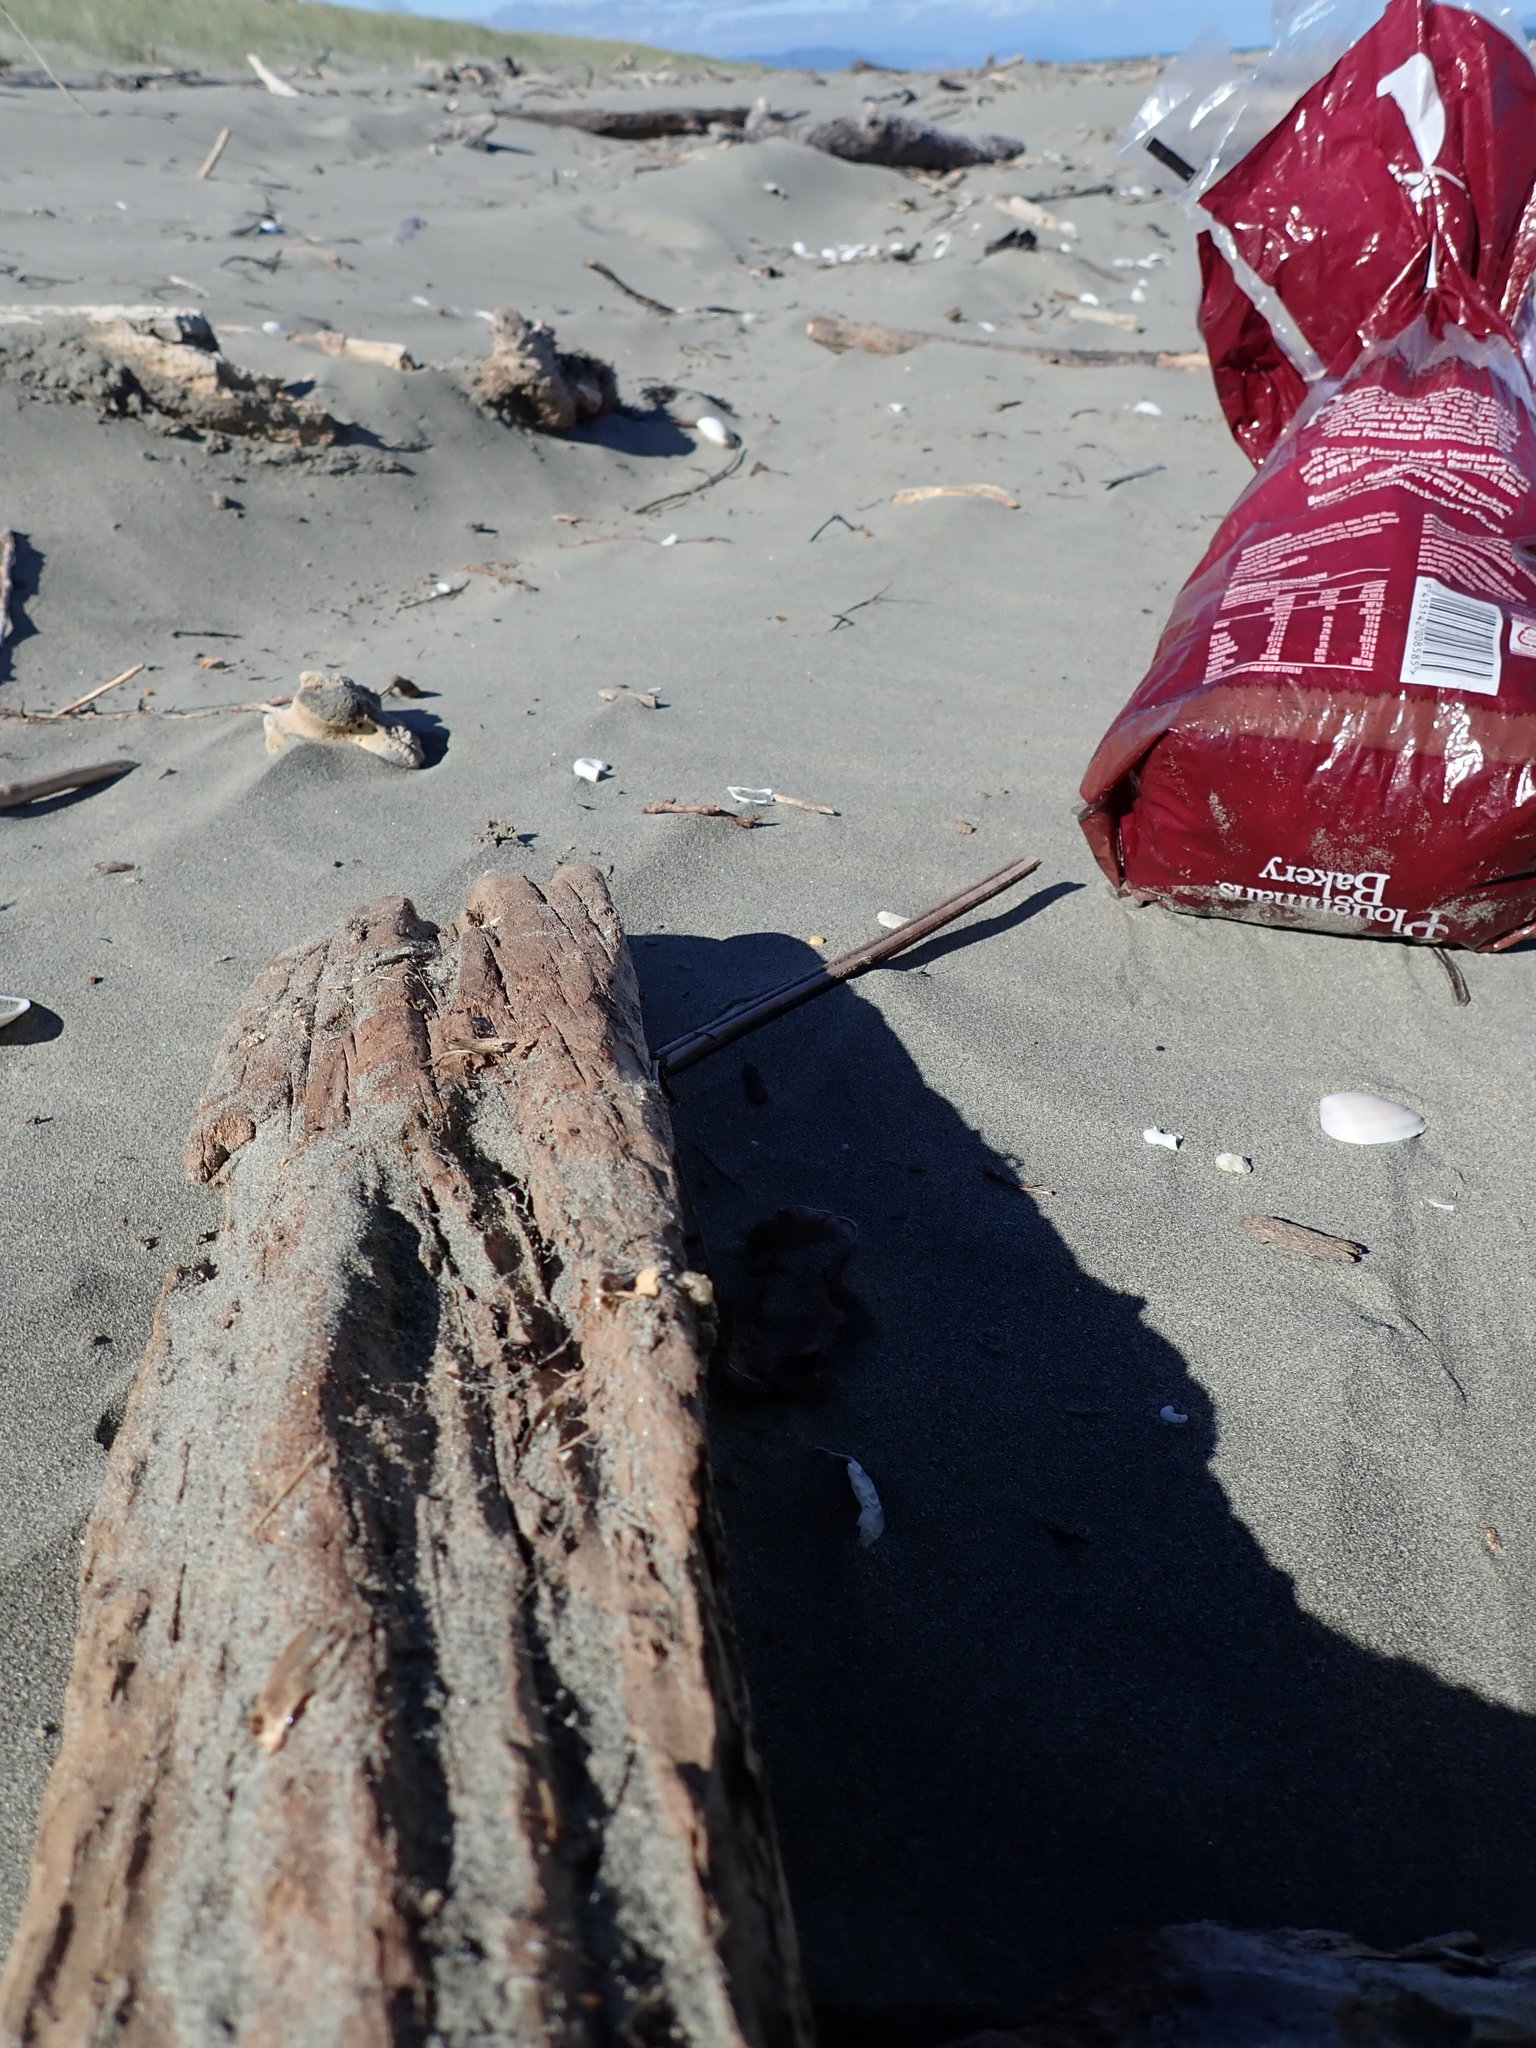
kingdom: Animalia
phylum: Arthropoda
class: Arachnida
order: Araneae
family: Theridiidae
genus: Steatoda
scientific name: Steatoda capensis
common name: Cobweb weaver
